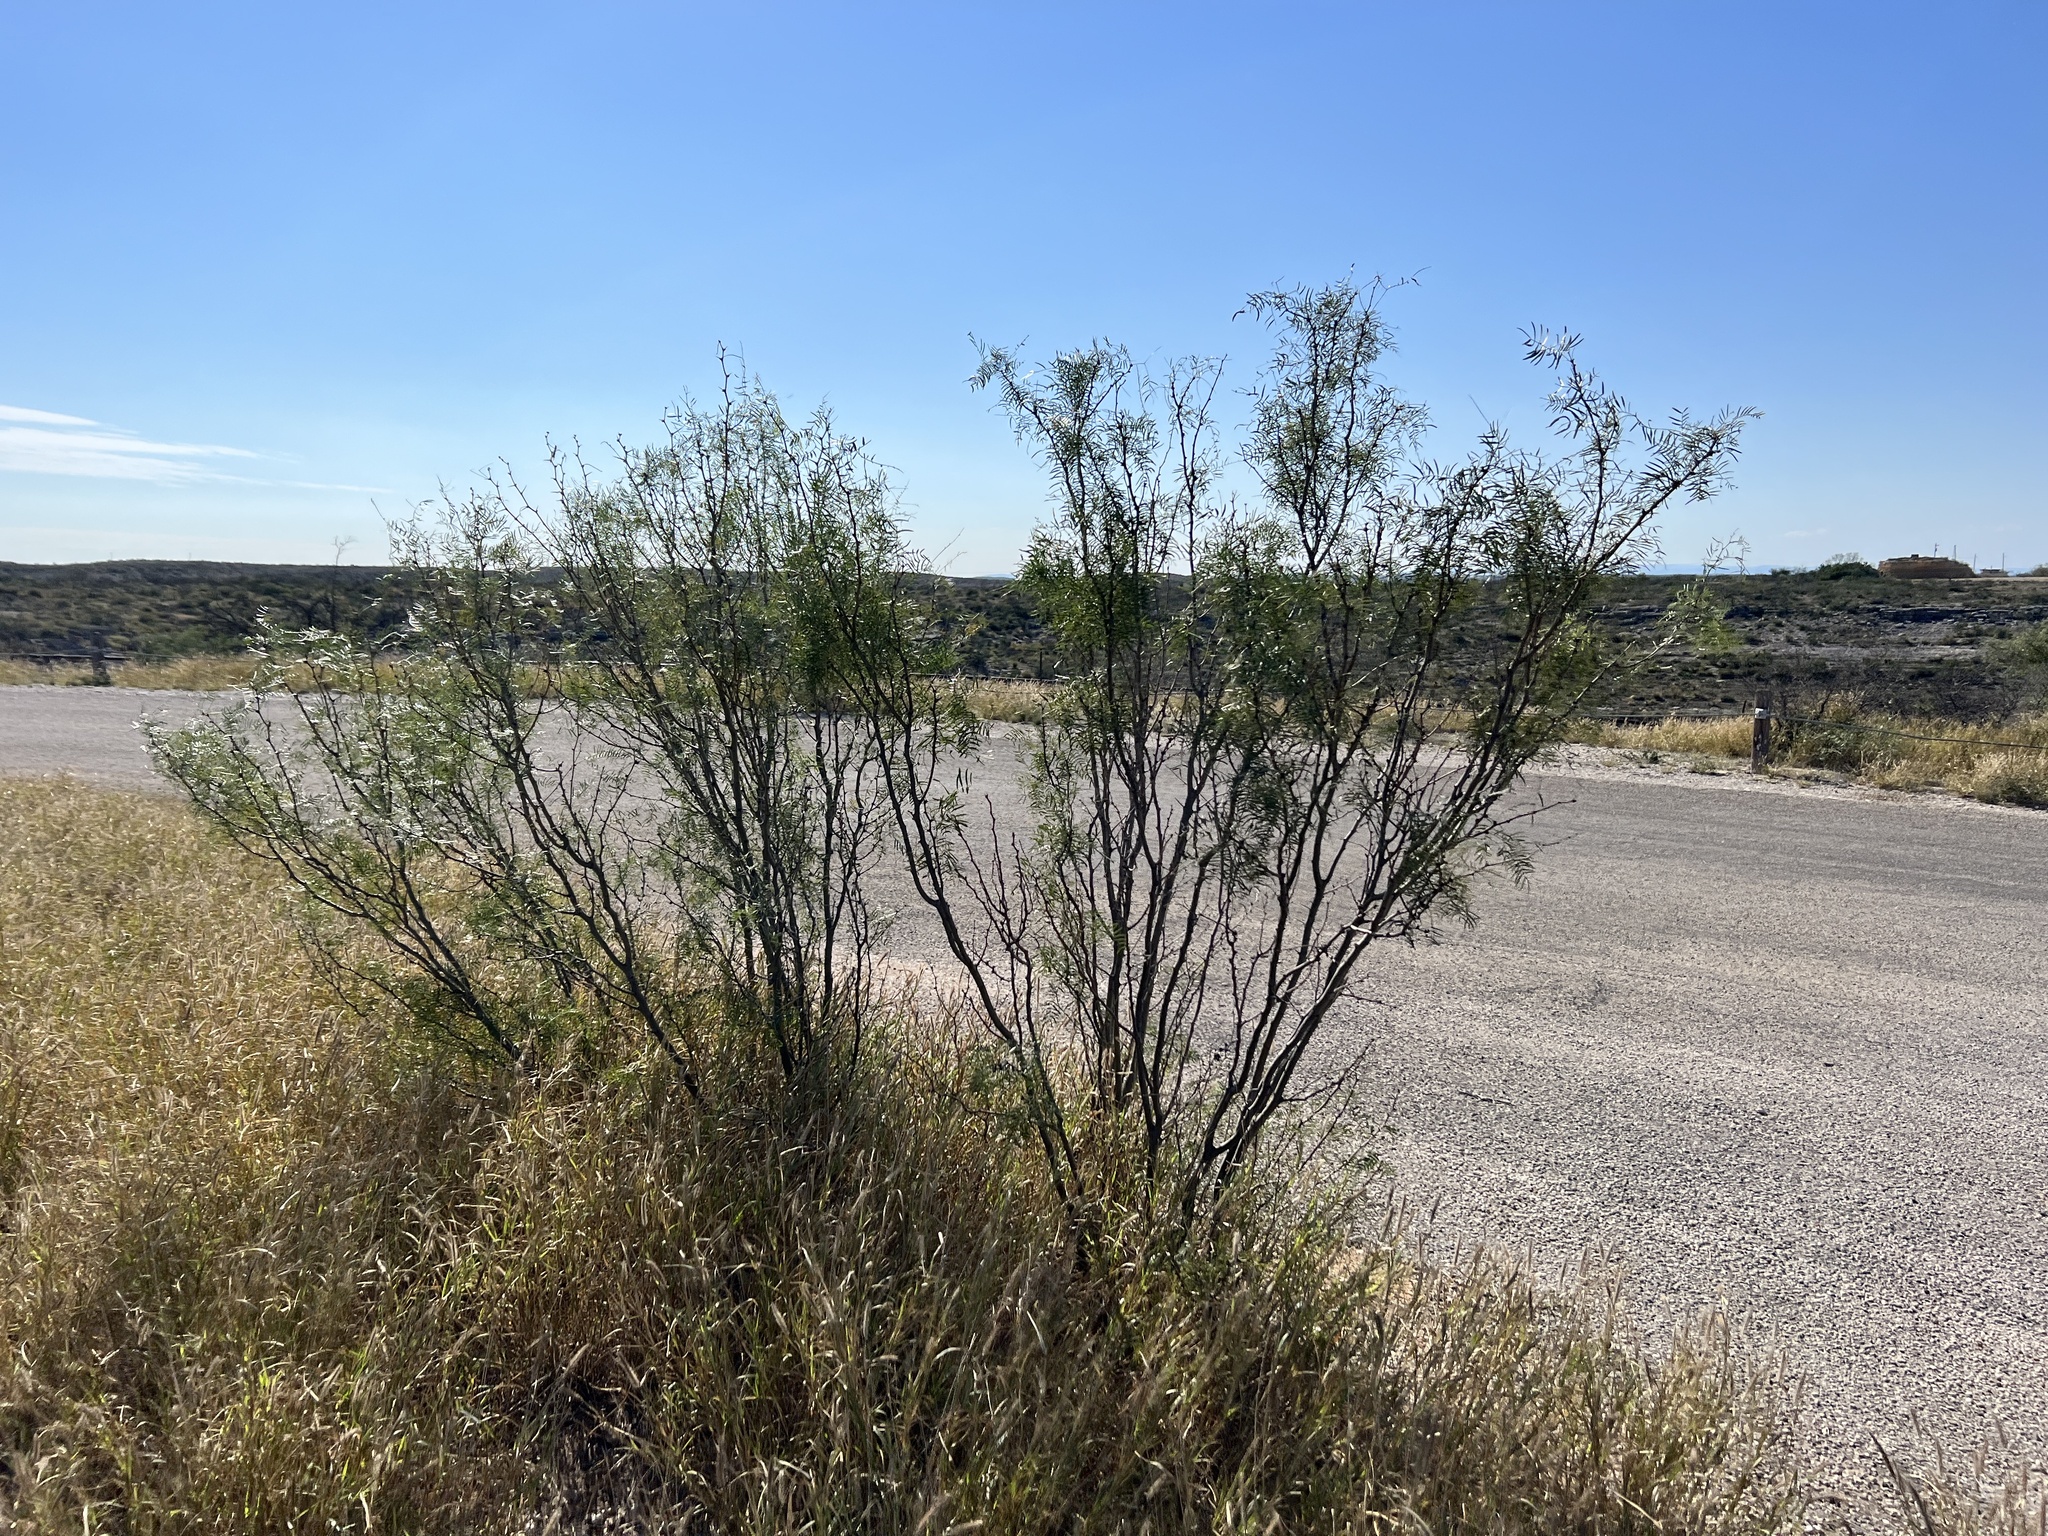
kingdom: Plantae
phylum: Tracheophyta
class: Magnoliopsida
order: Fabales
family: Fabaceae
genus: Prosopis
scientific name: Prosopis glandulosa
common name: Honey mesquite
